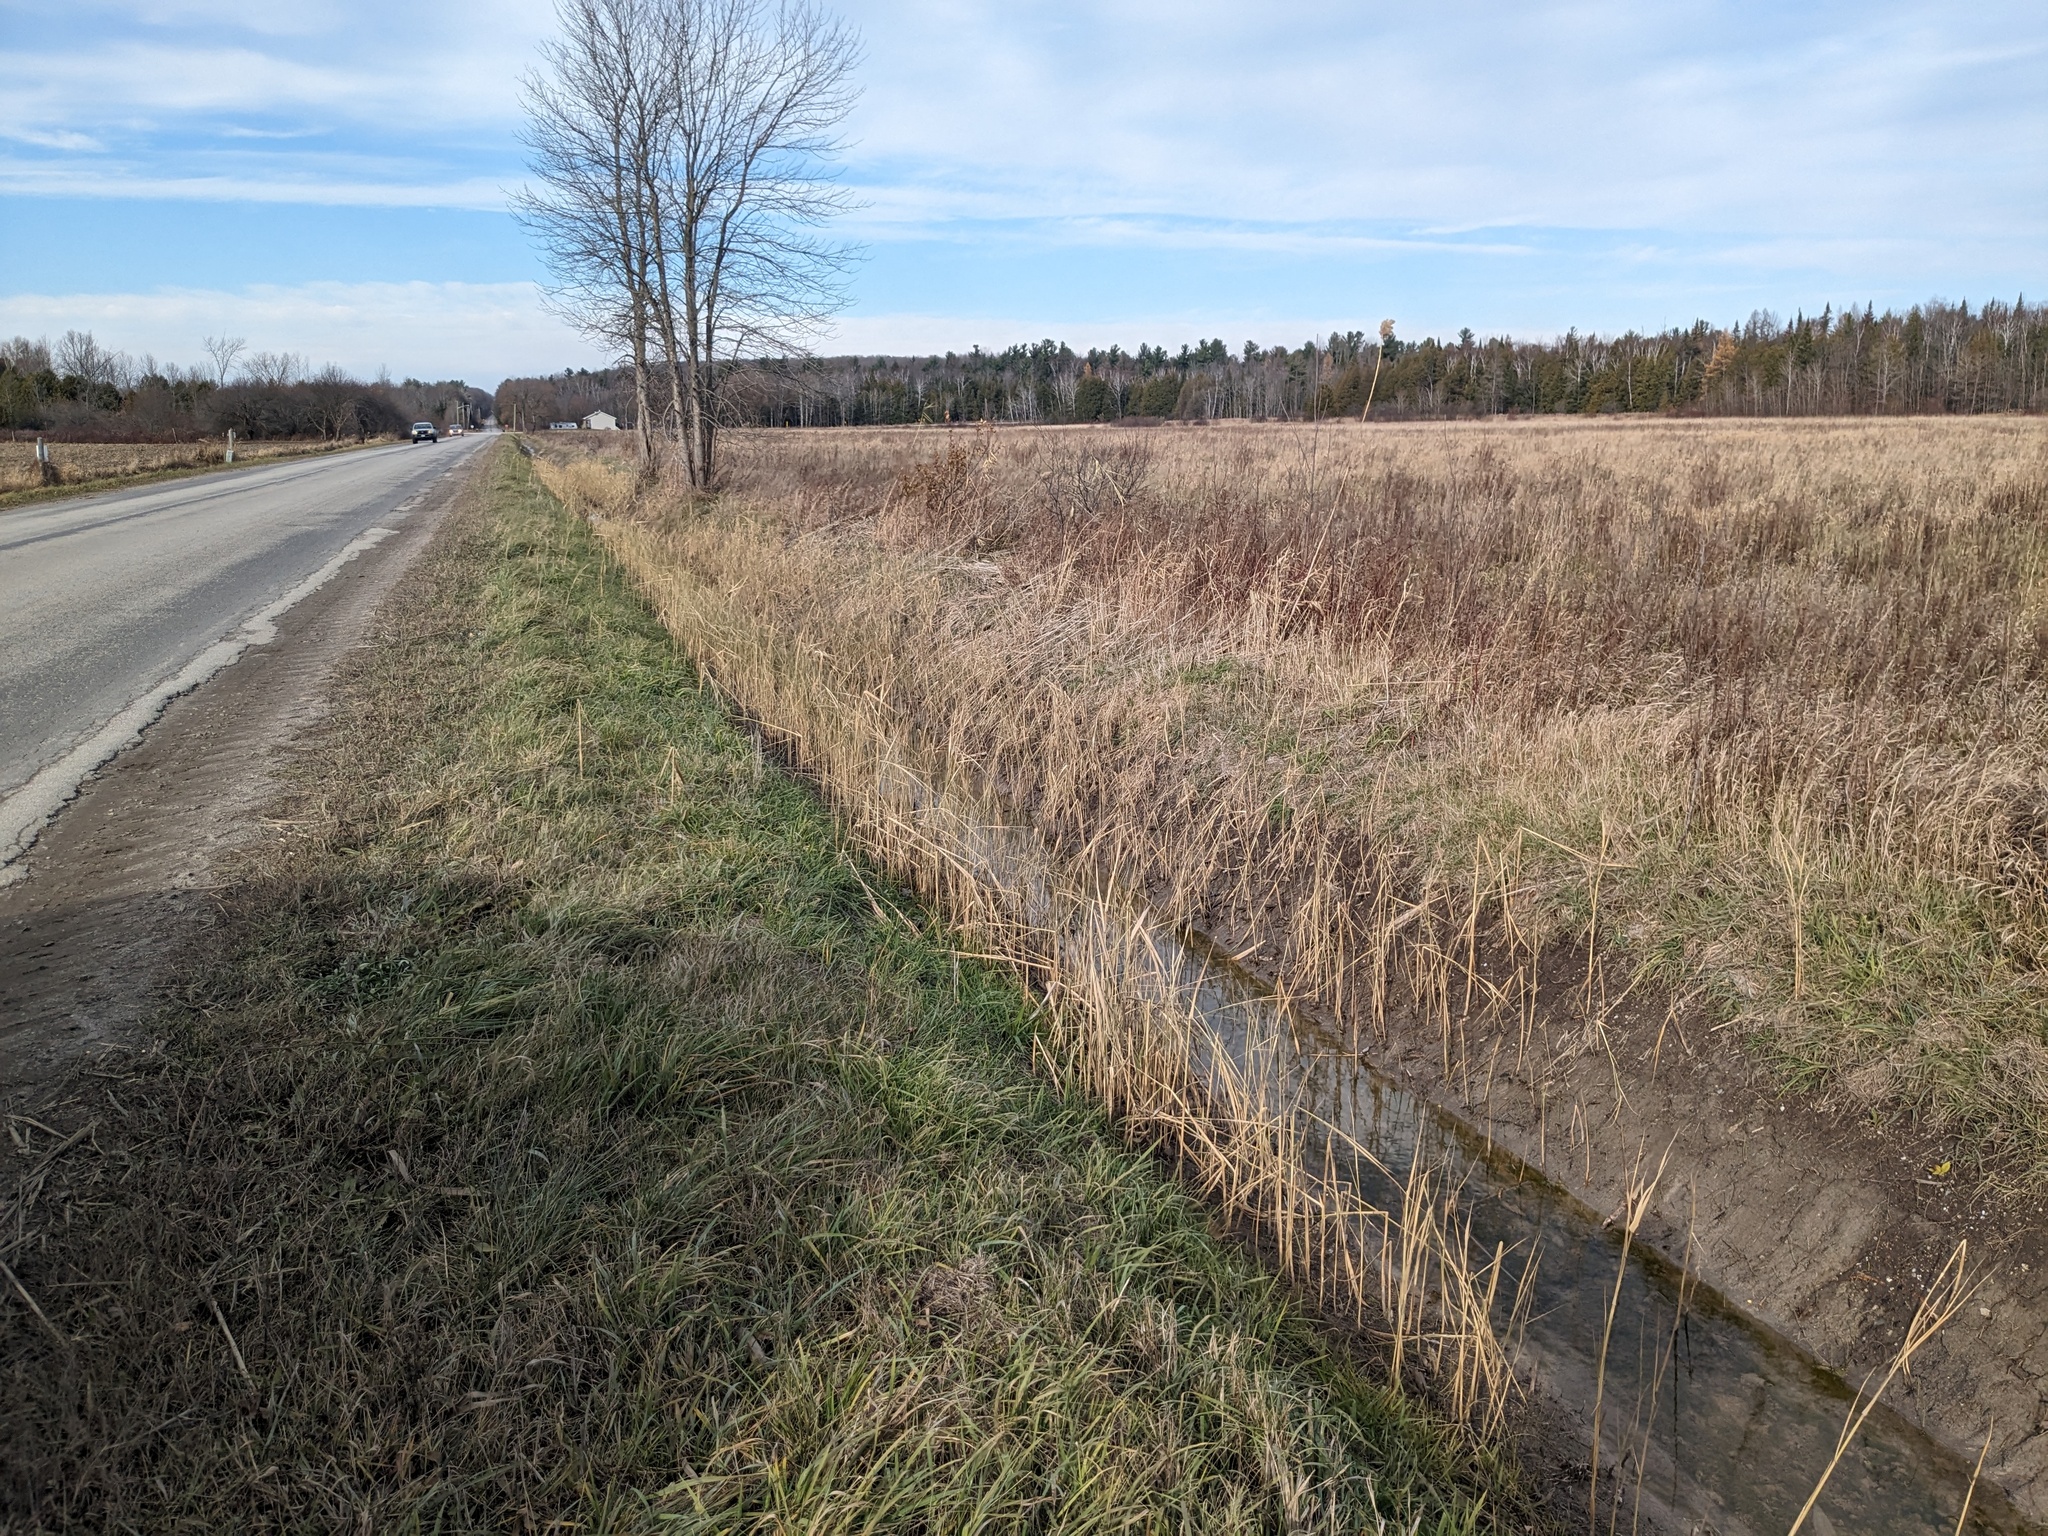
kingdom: Plantae
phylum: Tracheophyta
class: Liliopsida
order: Poales
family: Poaceae
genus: Phragmites
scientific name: Phragmites australis
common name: Common reed
